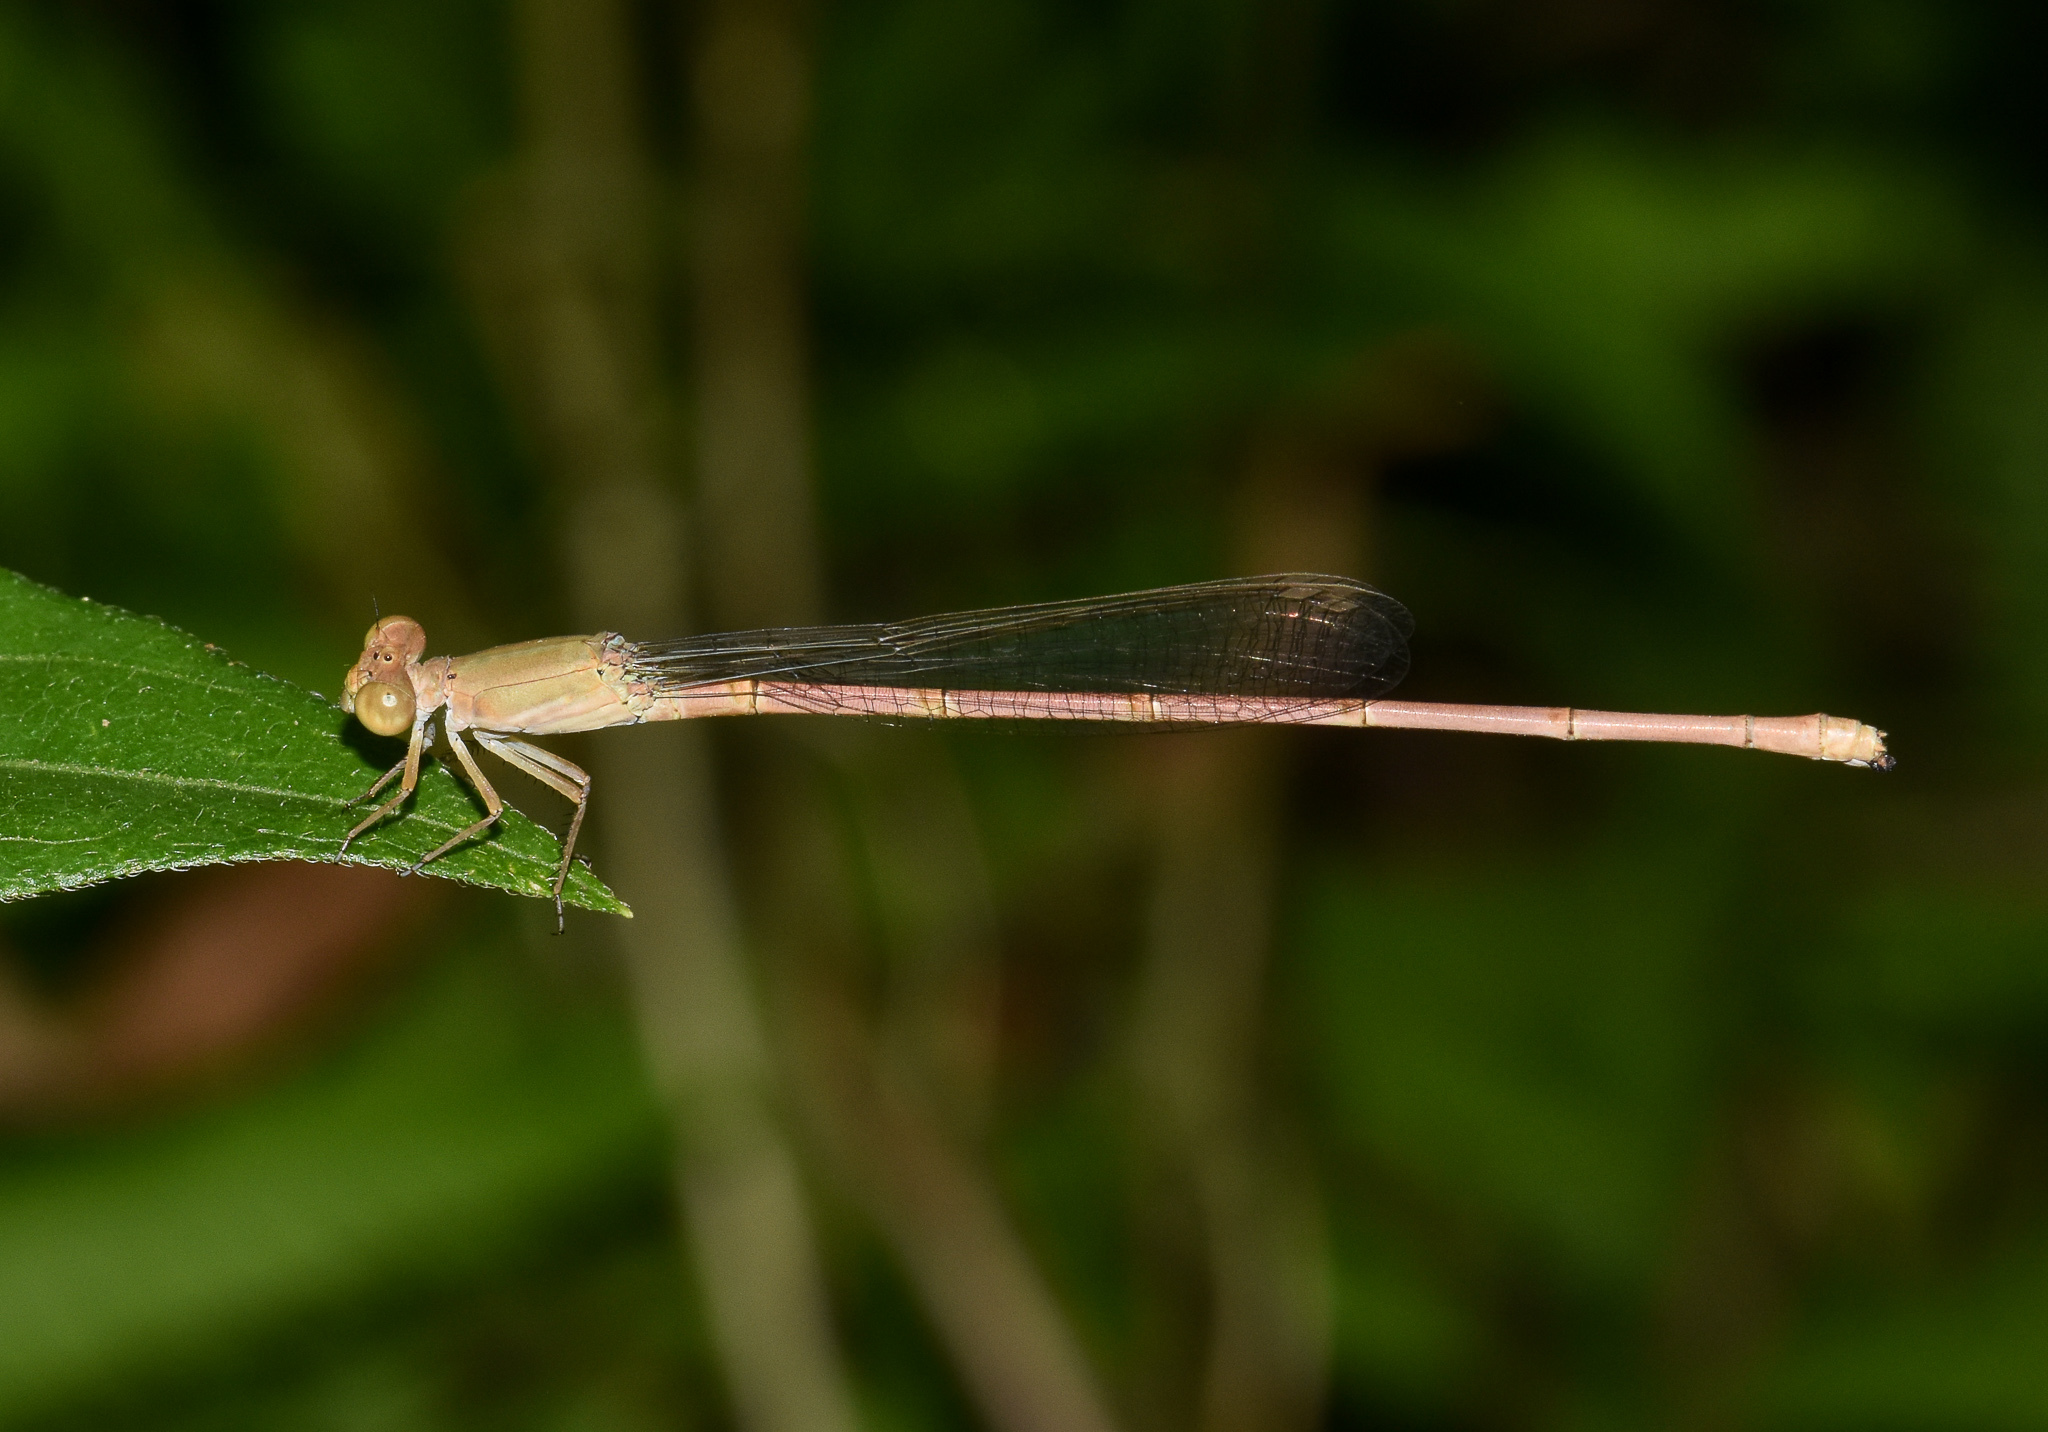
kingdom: Animalia
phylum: Arthropoda
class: Insecta
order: Odonata
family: Coenagrionidae
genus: Ceriagrion
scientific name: Ceriagrion olivaceum
